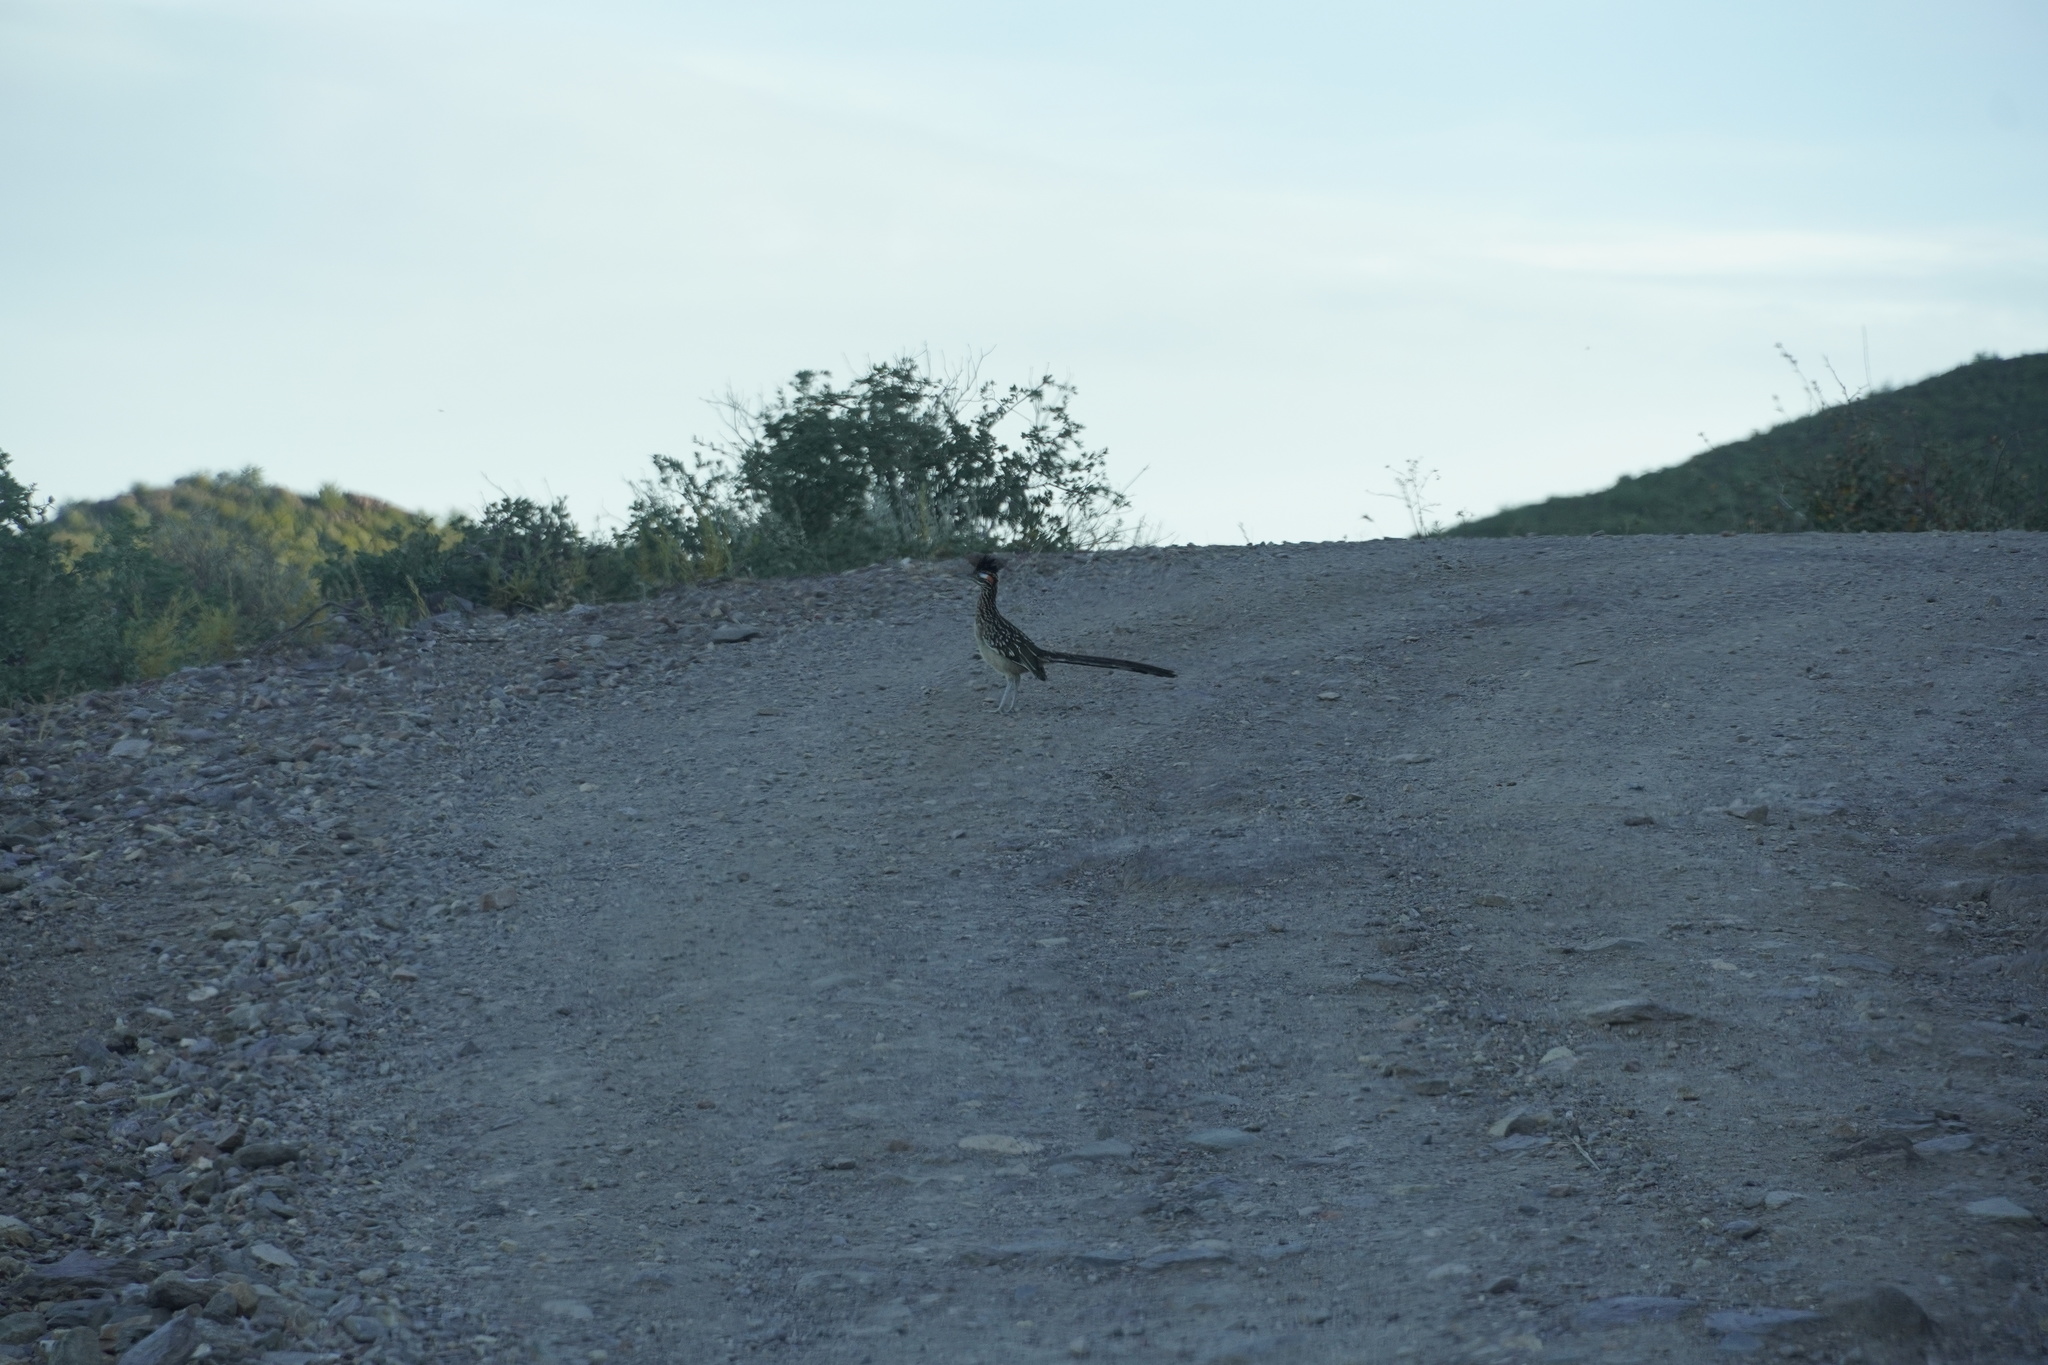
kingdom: Animalia
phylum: Chordata
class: Aves
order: Cuculiformes
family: Cuculidae
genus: Geococcyx
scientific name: Geococcyx californianus
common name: Greater roadrunner
